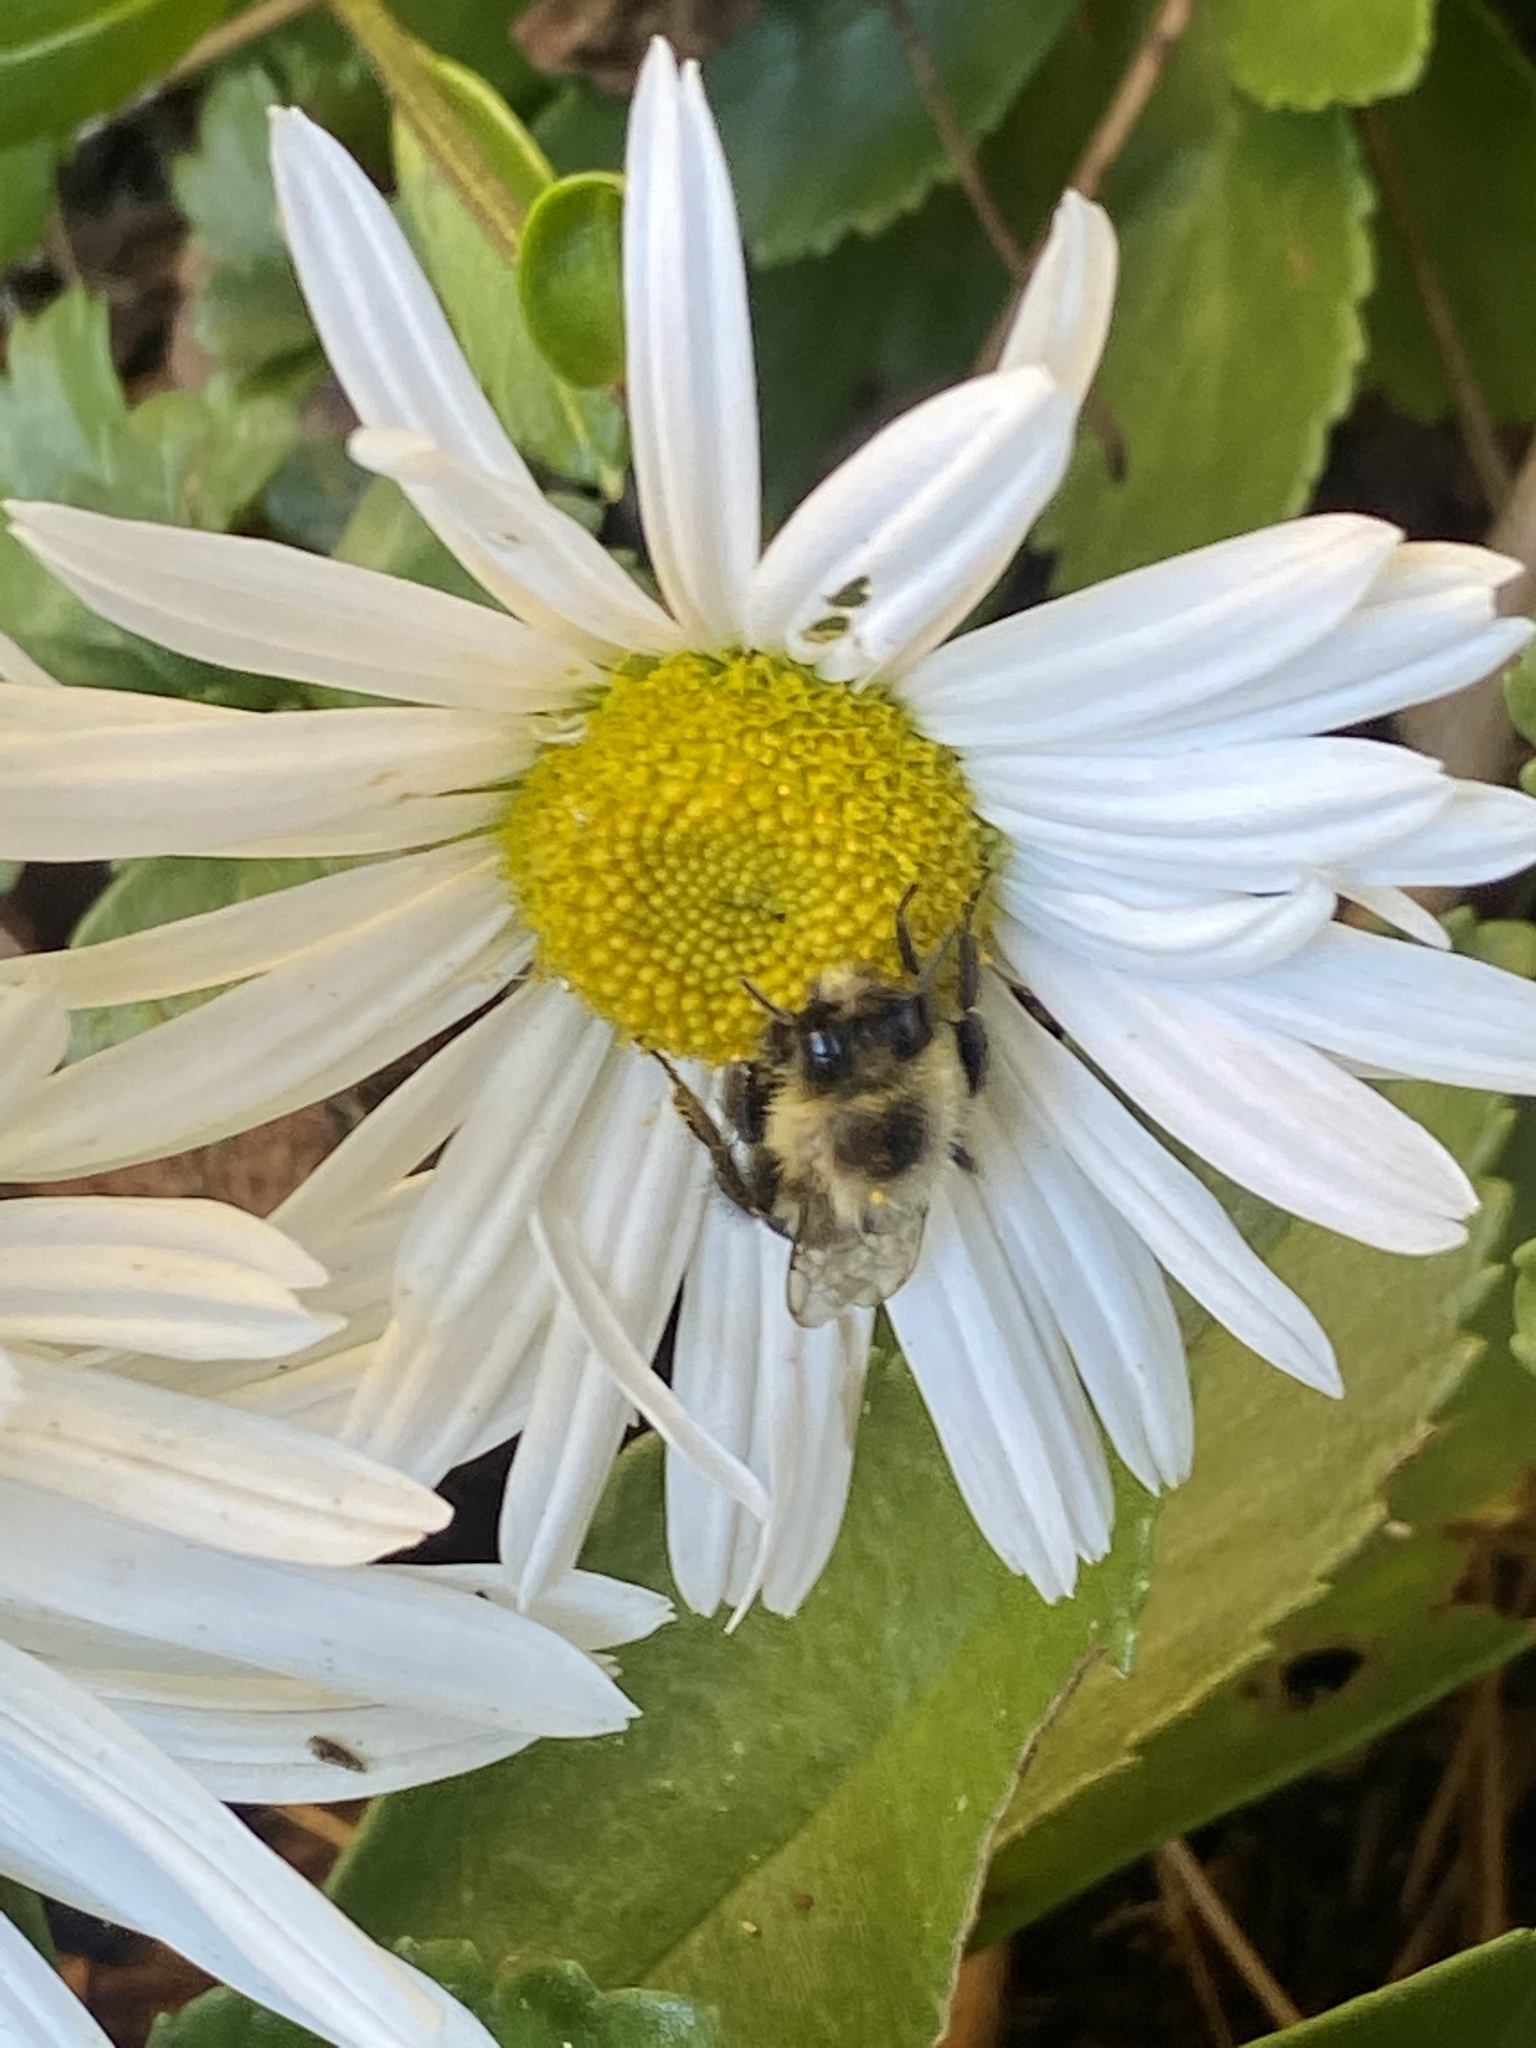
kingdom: Animalia
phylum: Arthropoda
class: Insecta
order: Hymenoptera
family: Apidae
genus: Bombus
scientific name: Bombus impatiens
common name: Common eastern bumble bee
